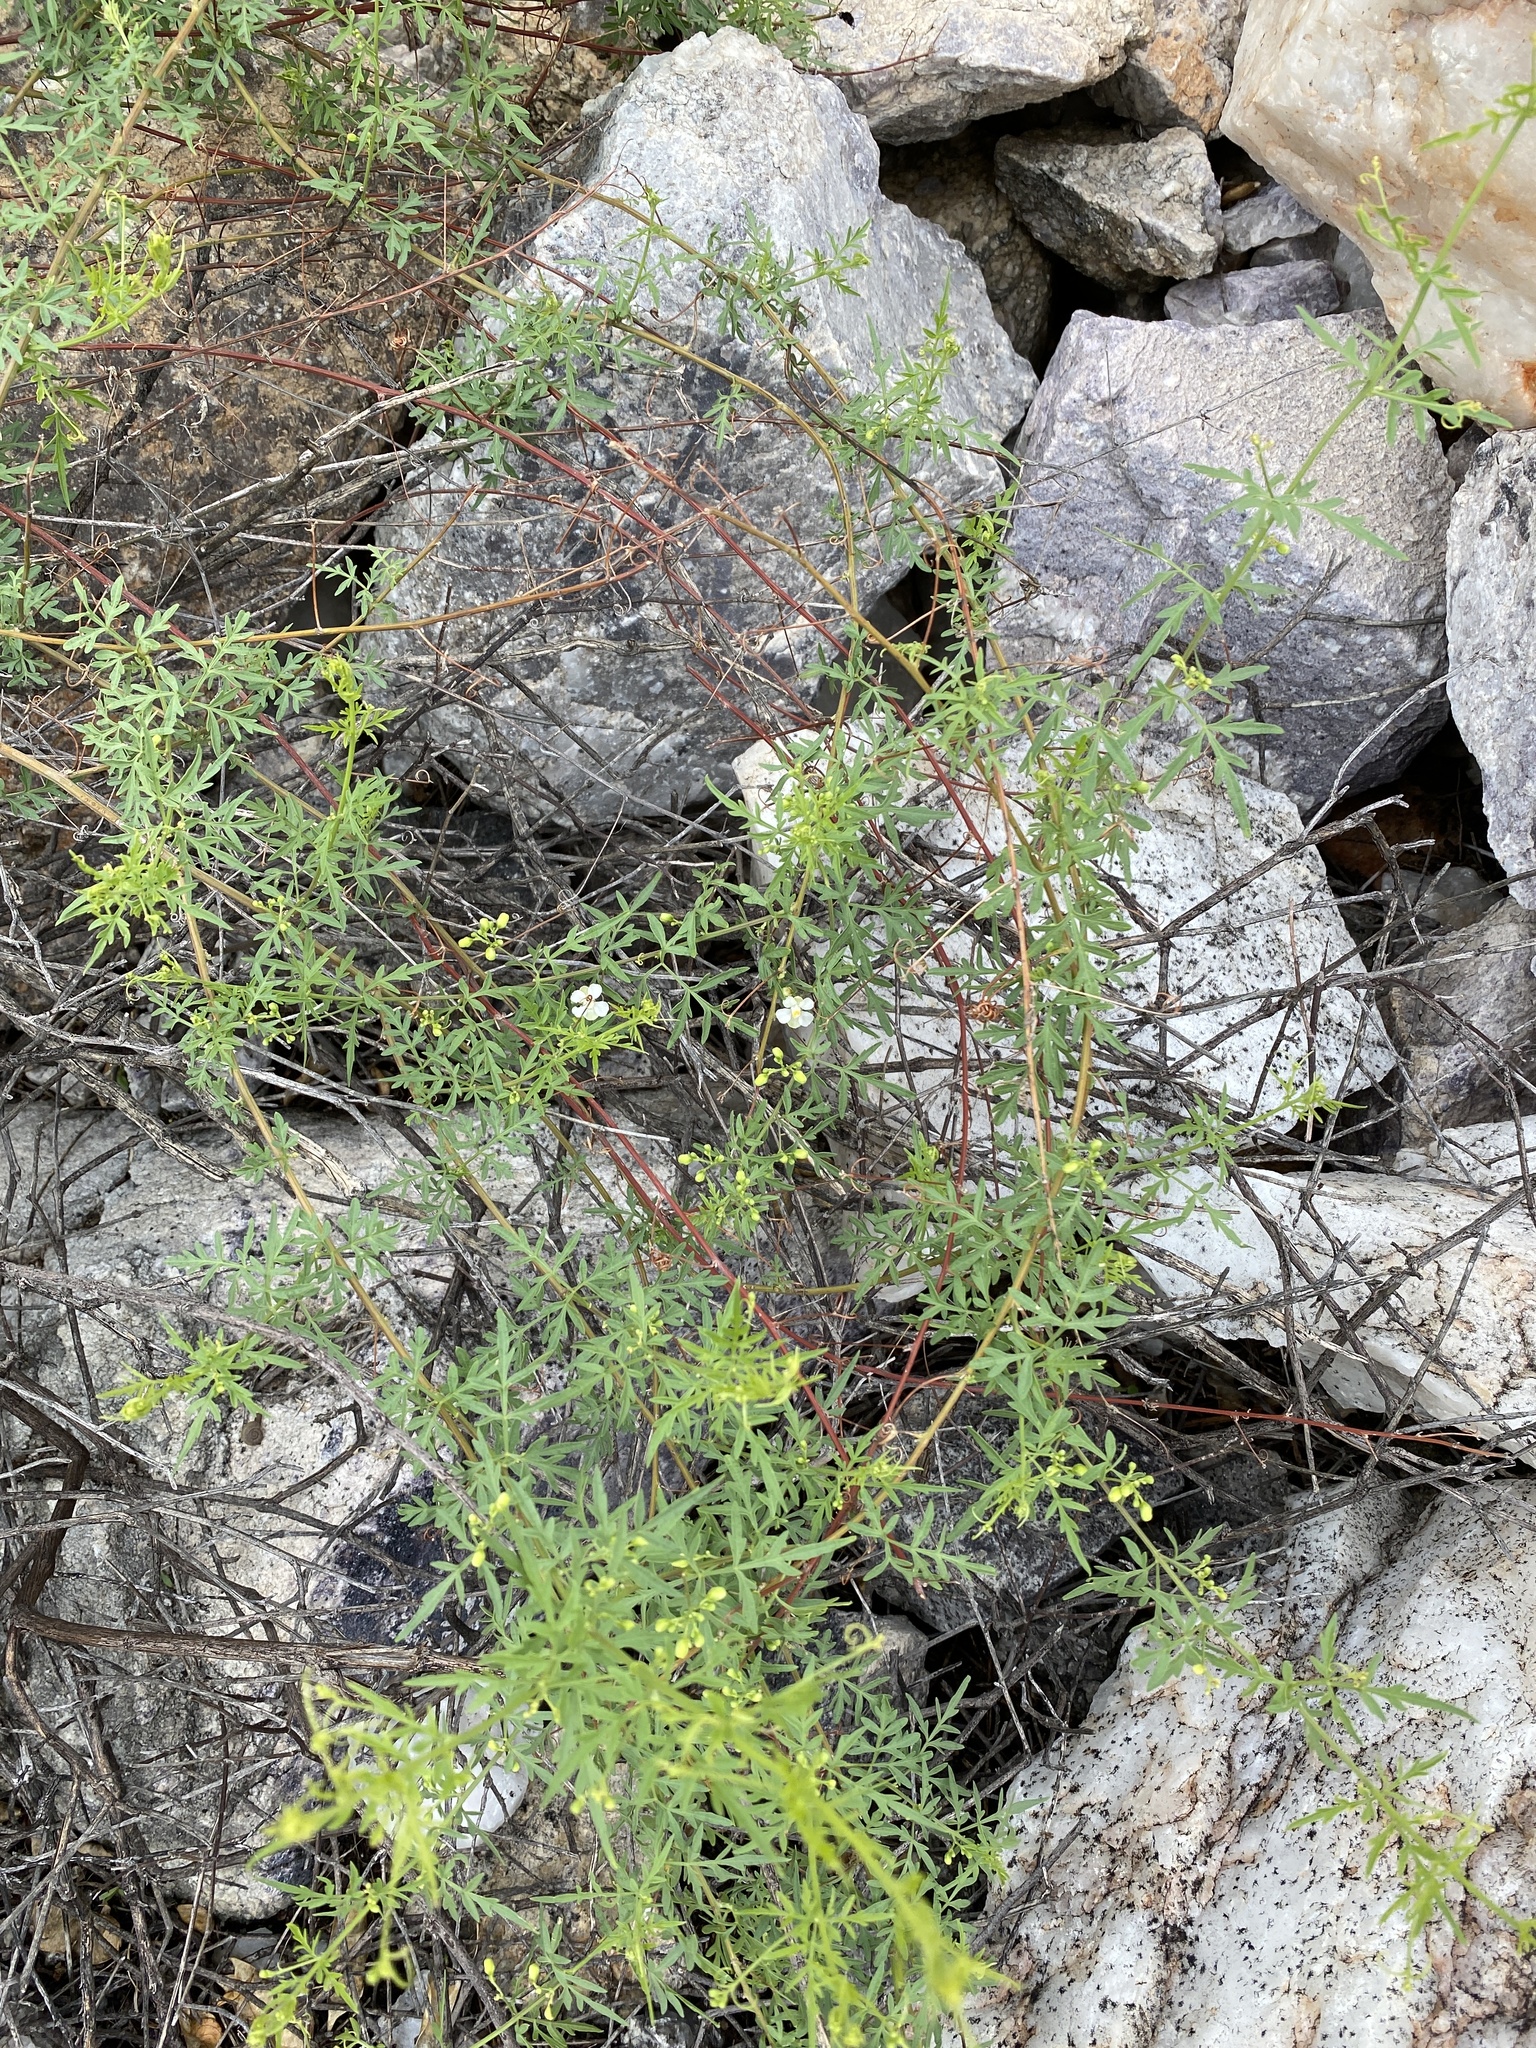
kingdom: Plantae
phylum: Tracheophyta
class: Magnoliopsida
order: Sapindales
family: Sapindaceae
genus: Cardiospermum
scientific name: Cardiospermum corindum
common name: Faux persil
